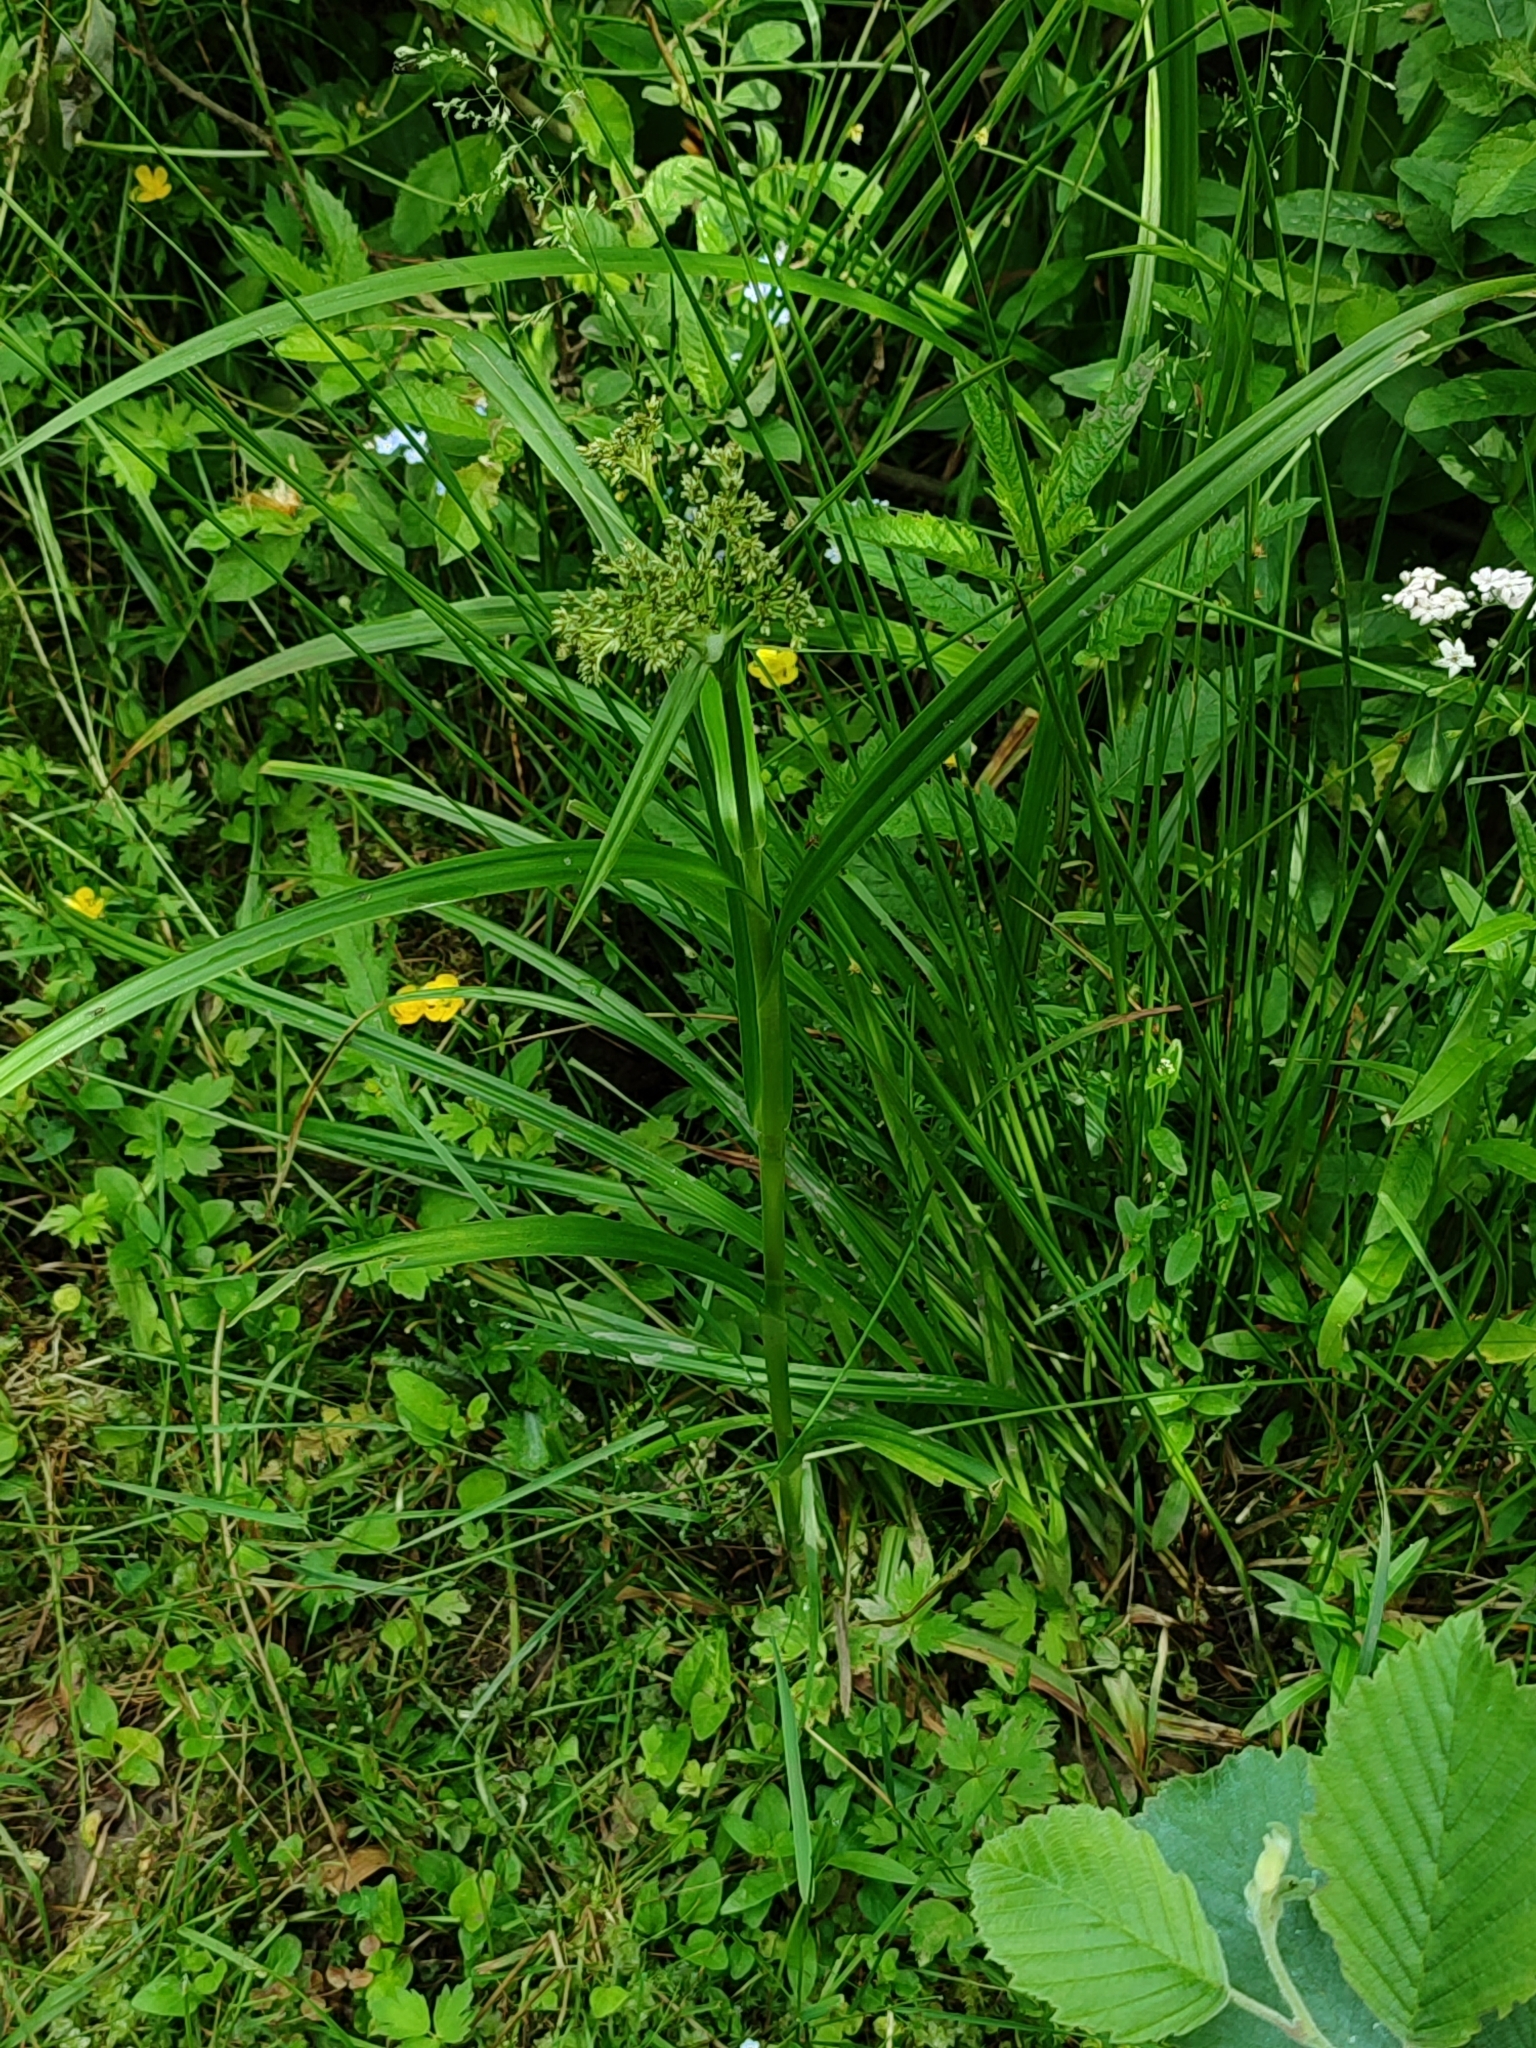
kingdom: Plantae
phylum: Tracheophyta
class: Liliopsida
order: Poales
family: Cyperaceae
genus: Scirpus
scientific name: Scirpus sylvaticus
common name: Wood club-rush
